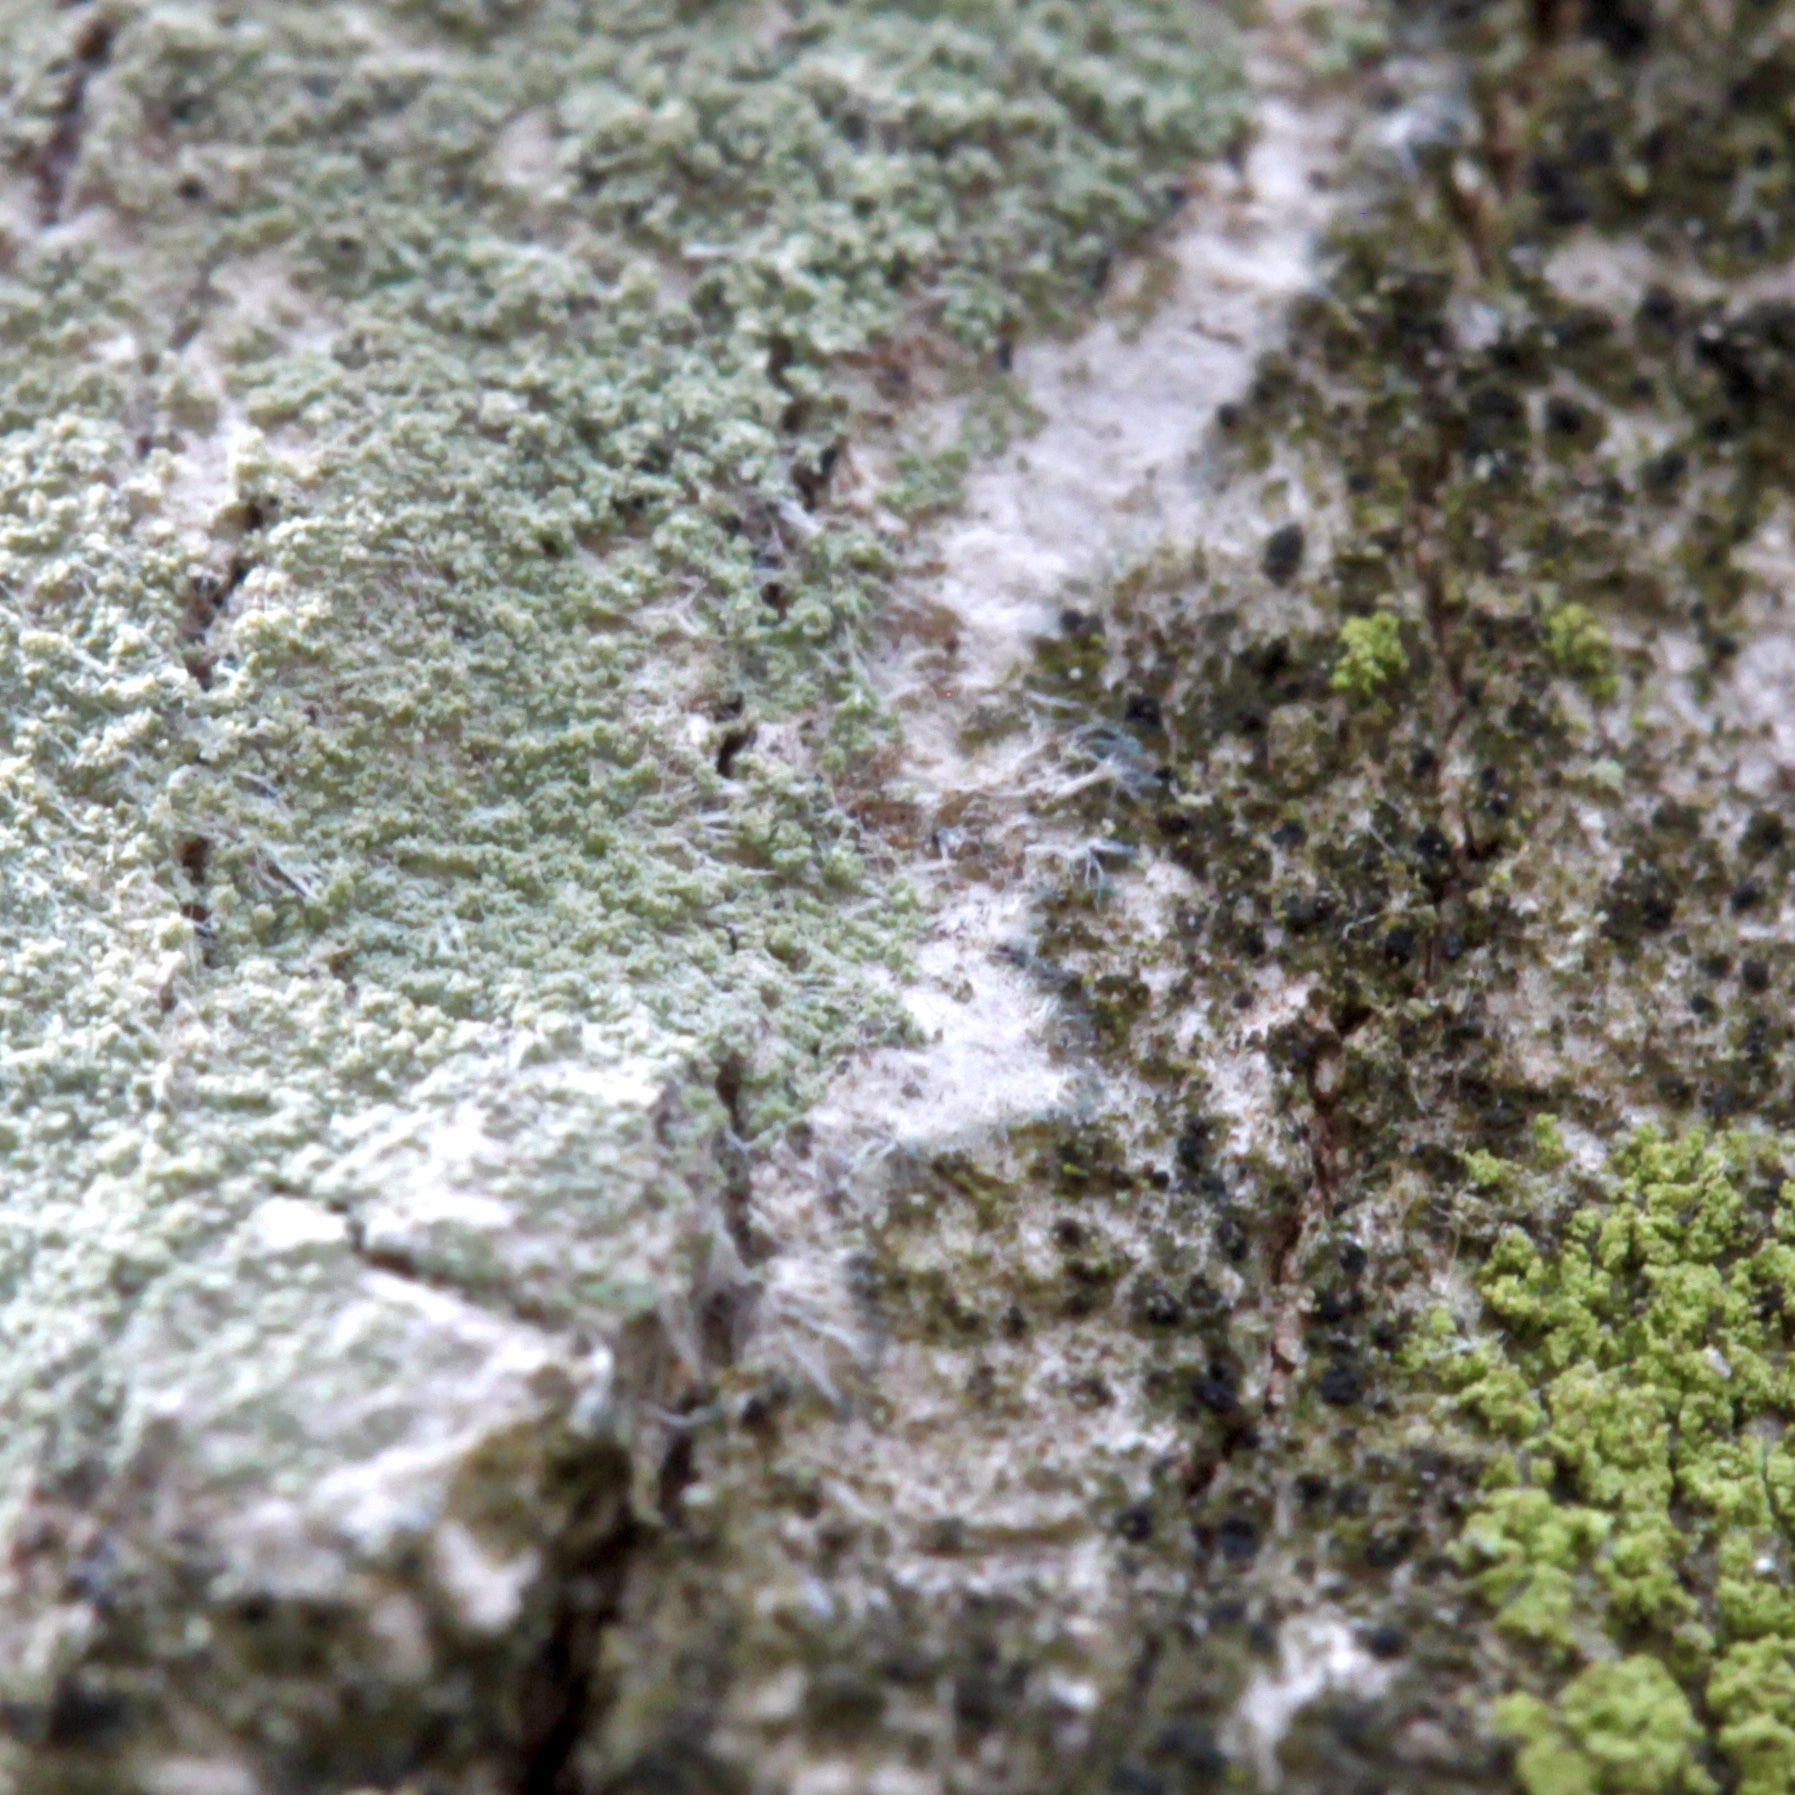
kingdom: Fungi
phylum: Ascomycota
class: Lecanoromycetes
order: Pertusariales
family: Pertusariaceae
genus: Verseghya
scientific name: Verseghya thysanophora
